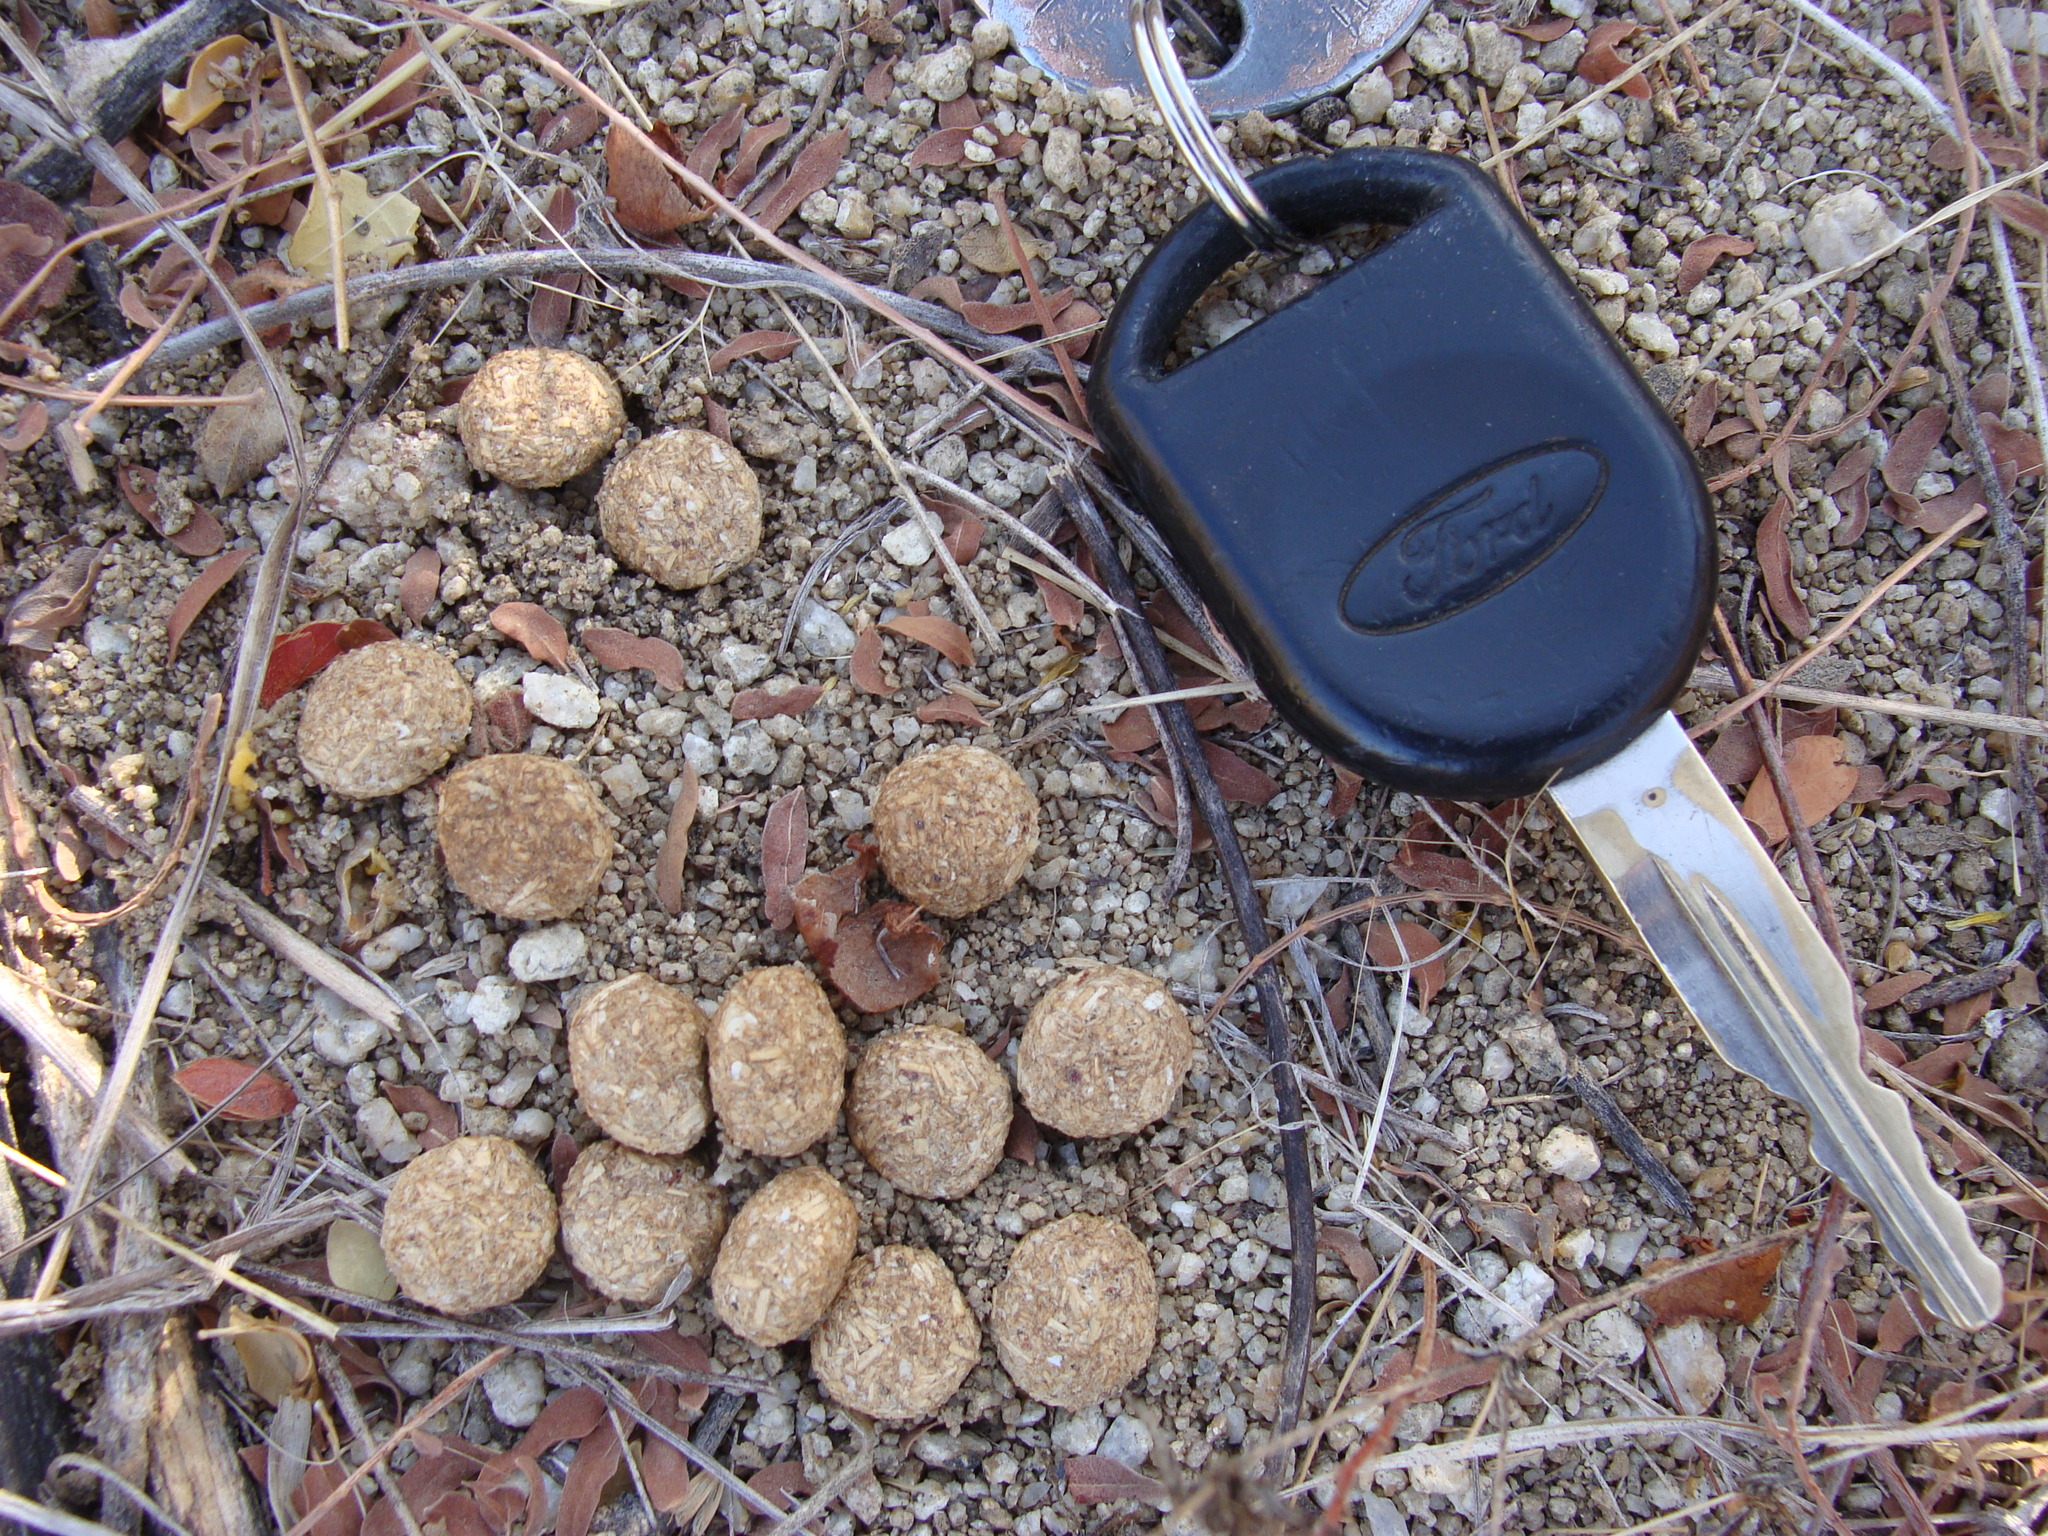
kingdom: Animalia
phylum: Chordata
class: Mammalia
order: Lagomorpha
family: Leporidae
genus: Lepus
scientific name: Lepus californicus
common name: Black-tailed jackrabbit
